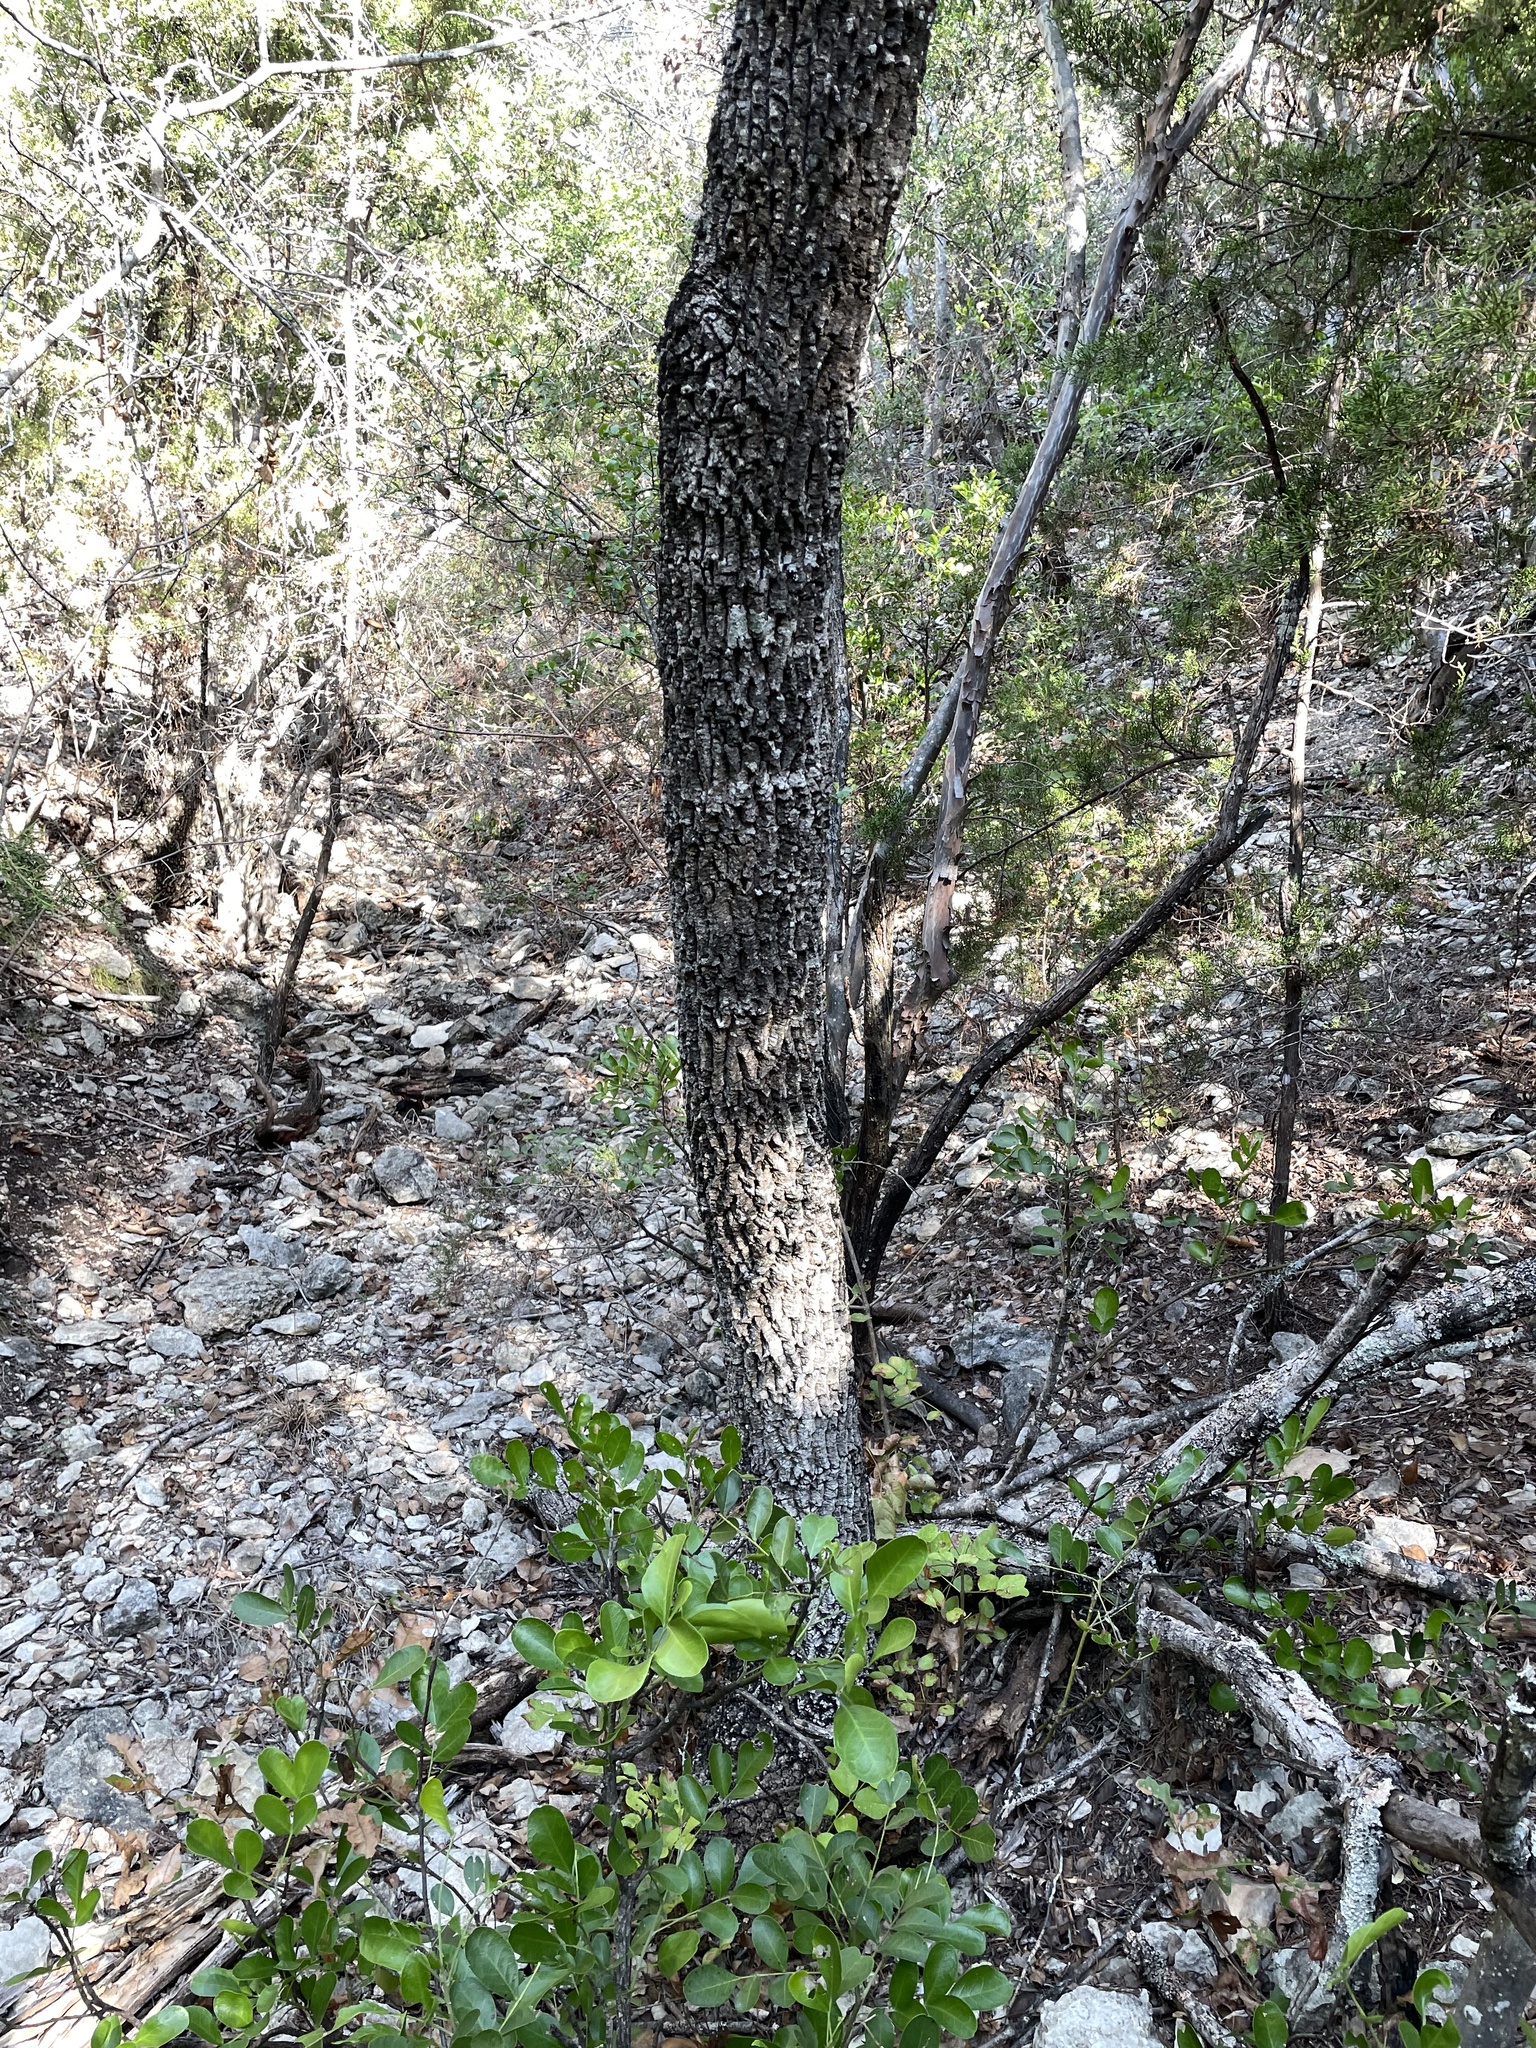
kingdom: Plantae
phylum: Tracheophyta
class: Magnoliopsida
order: Lamiales
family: Oleaceae
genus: Fraxinus
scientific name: Fraxinus albicans
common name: Texas ash
